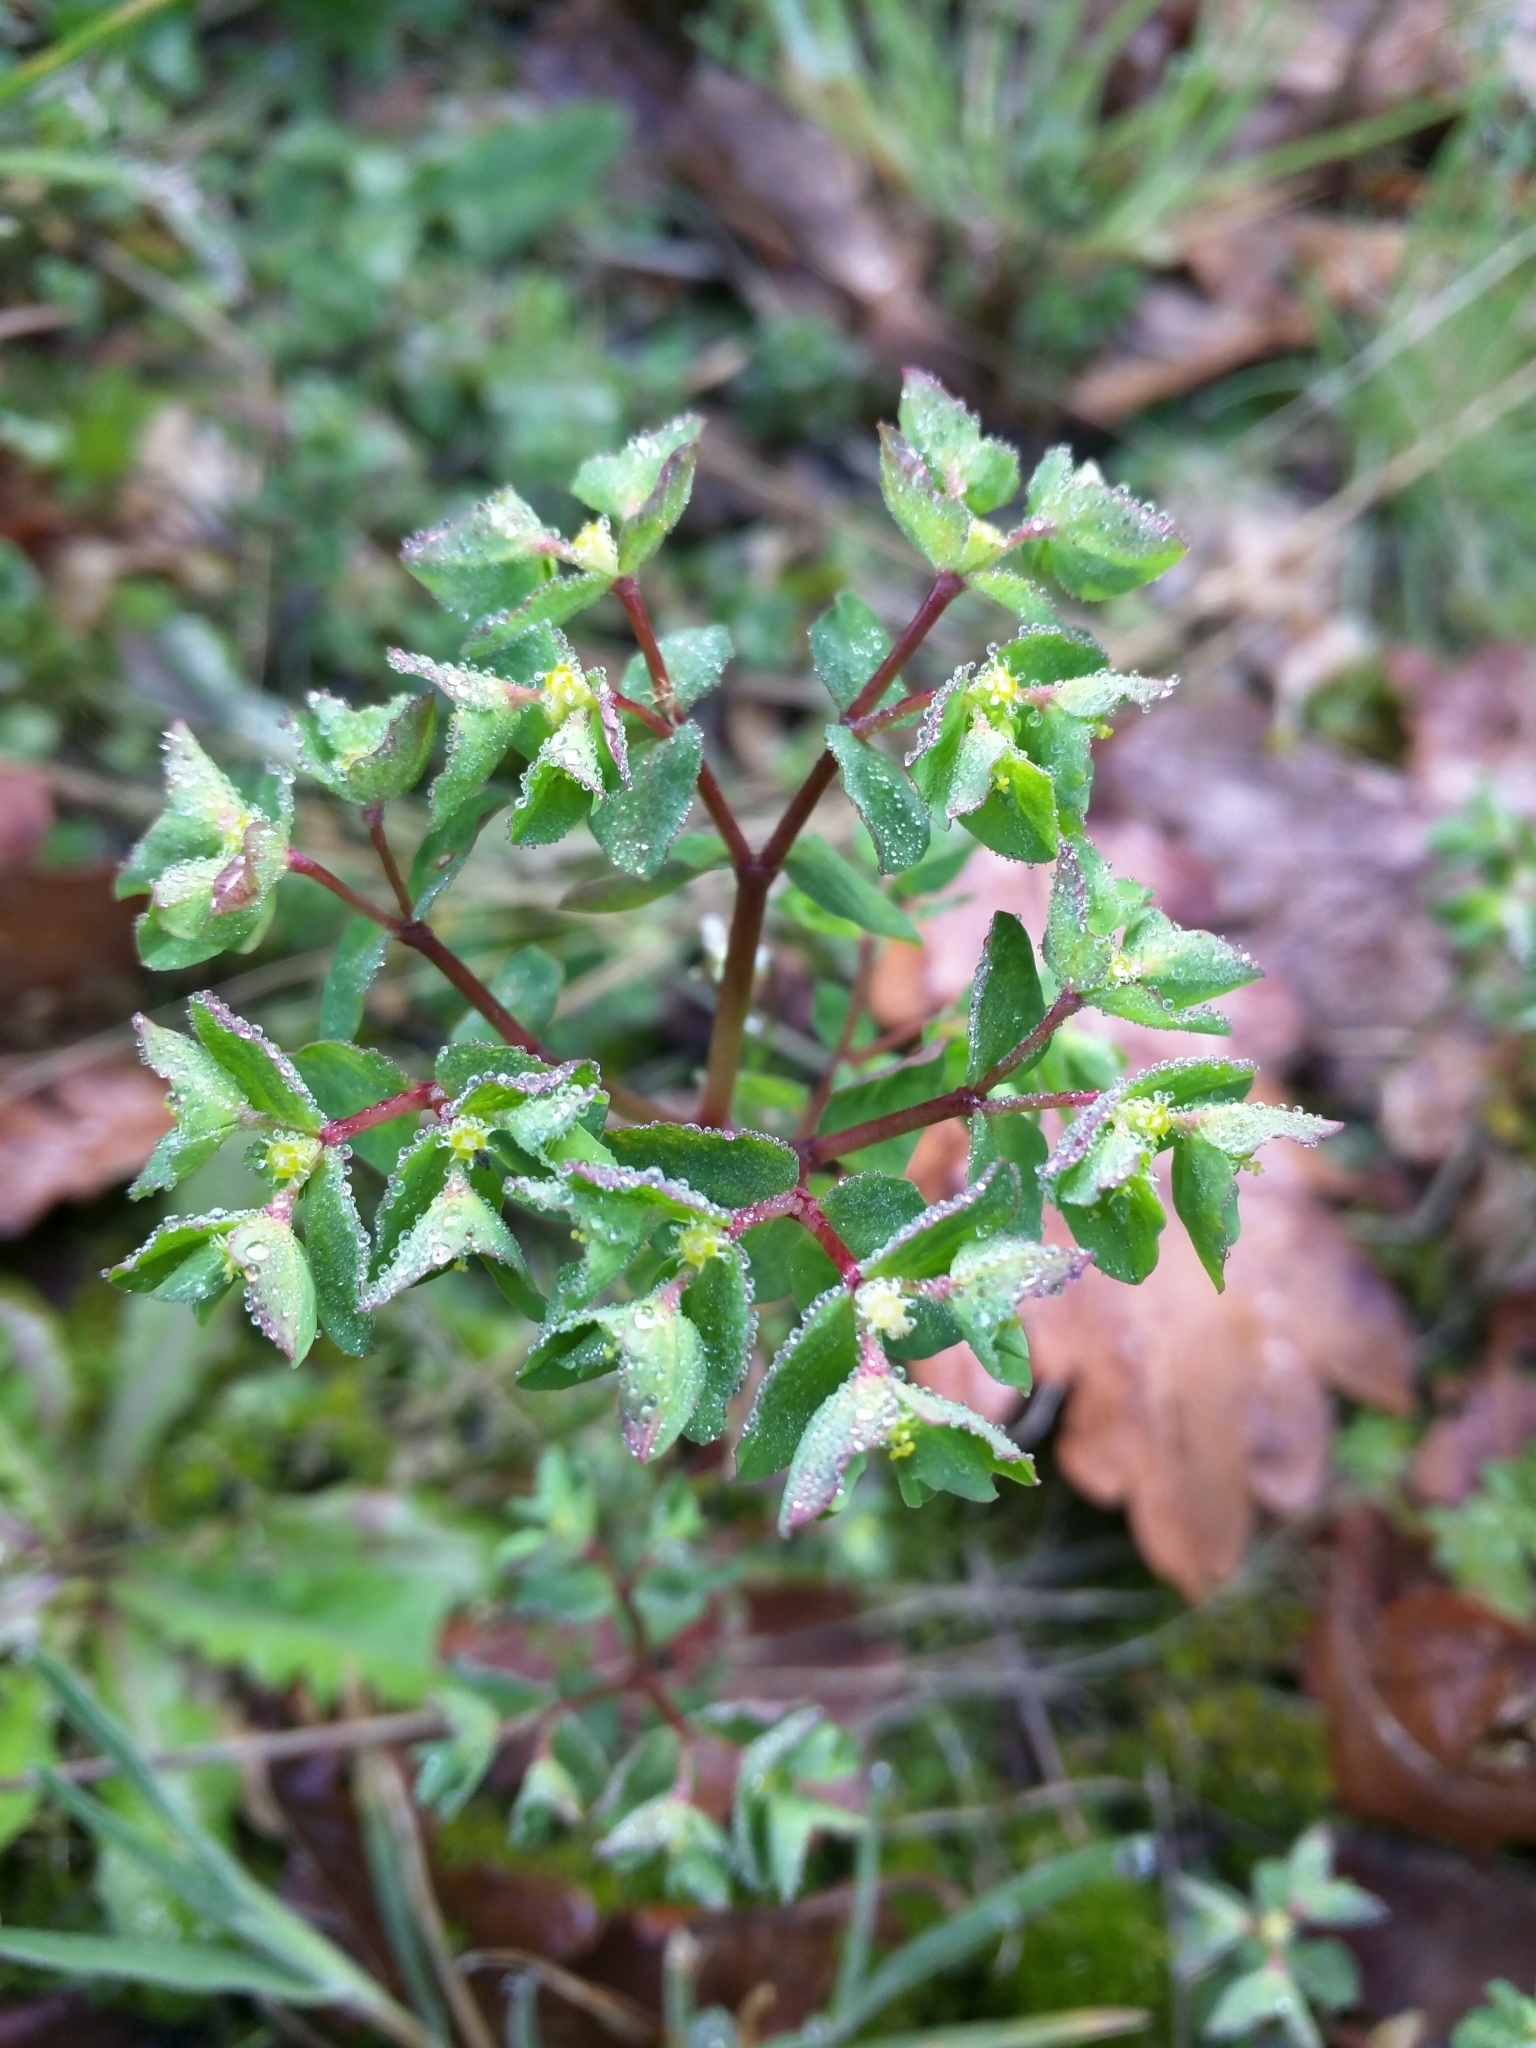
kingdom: Plantae
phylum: Tracheophyta
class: Magnoliopsida
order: Malpighiales
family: Euphorbiaceae
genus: Euphorbia
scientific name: Euphorbia peplus
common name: Petty spurge
